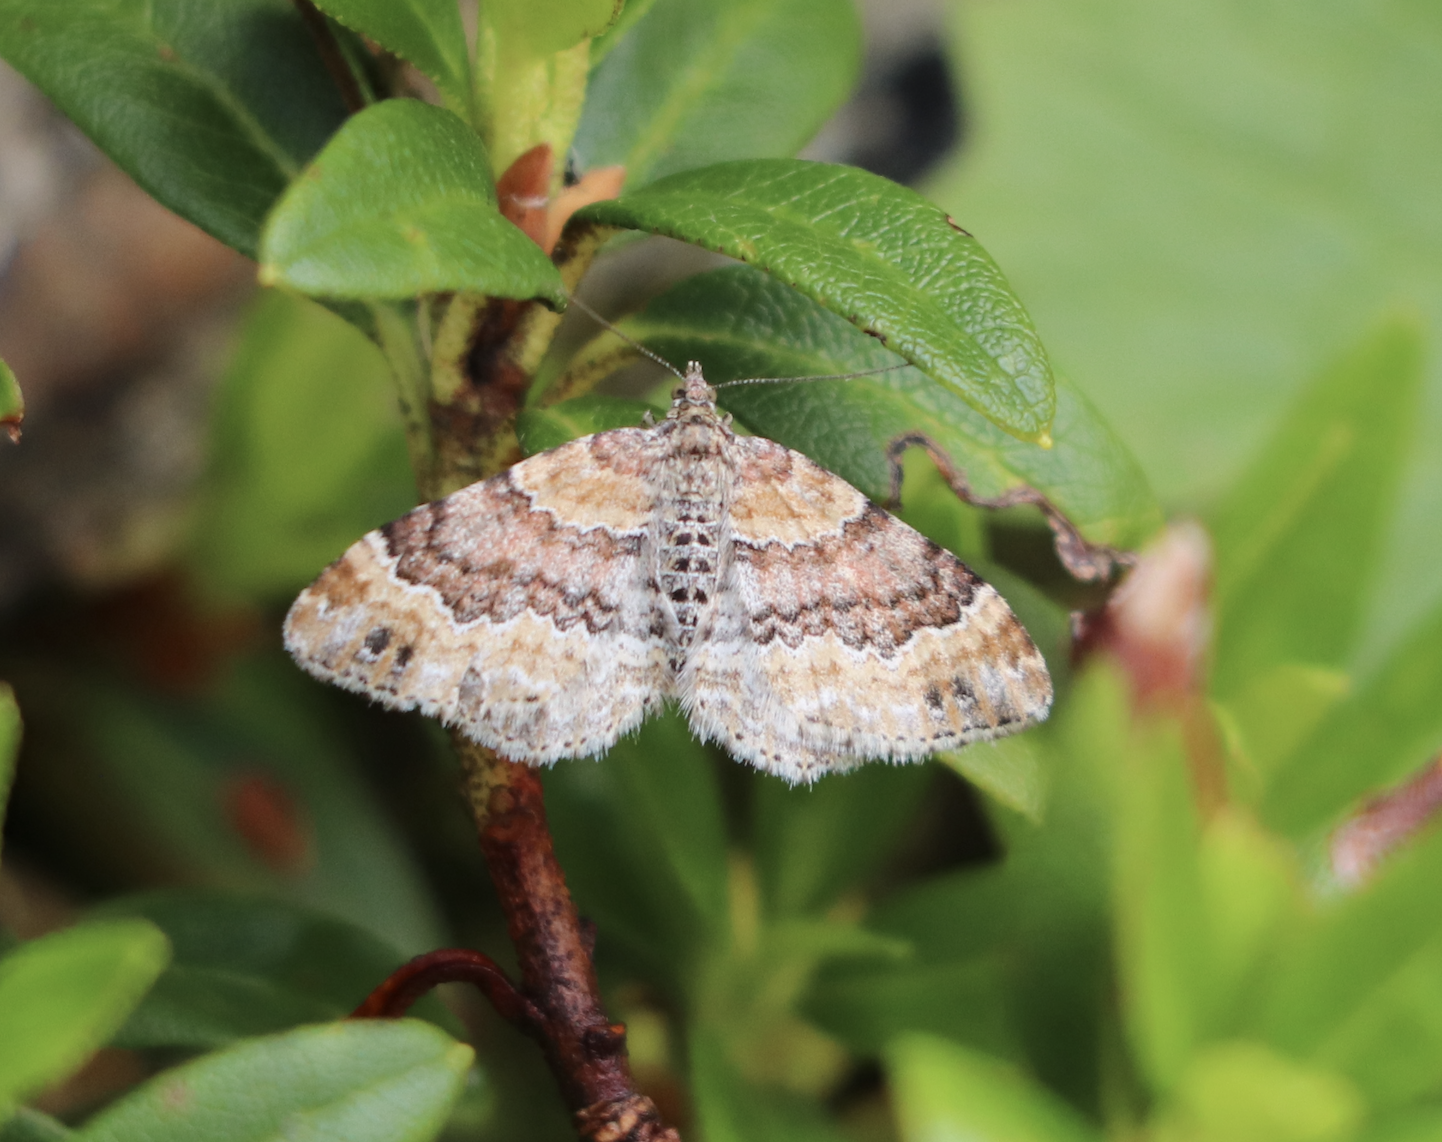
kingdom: Animalia
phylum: Arthropoda
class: Insecta
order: Lepidoptera
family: Geometridae
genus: Xanthorhoe
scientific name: Xanthorhoe spadicearia
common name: Red twin-spot carpet
